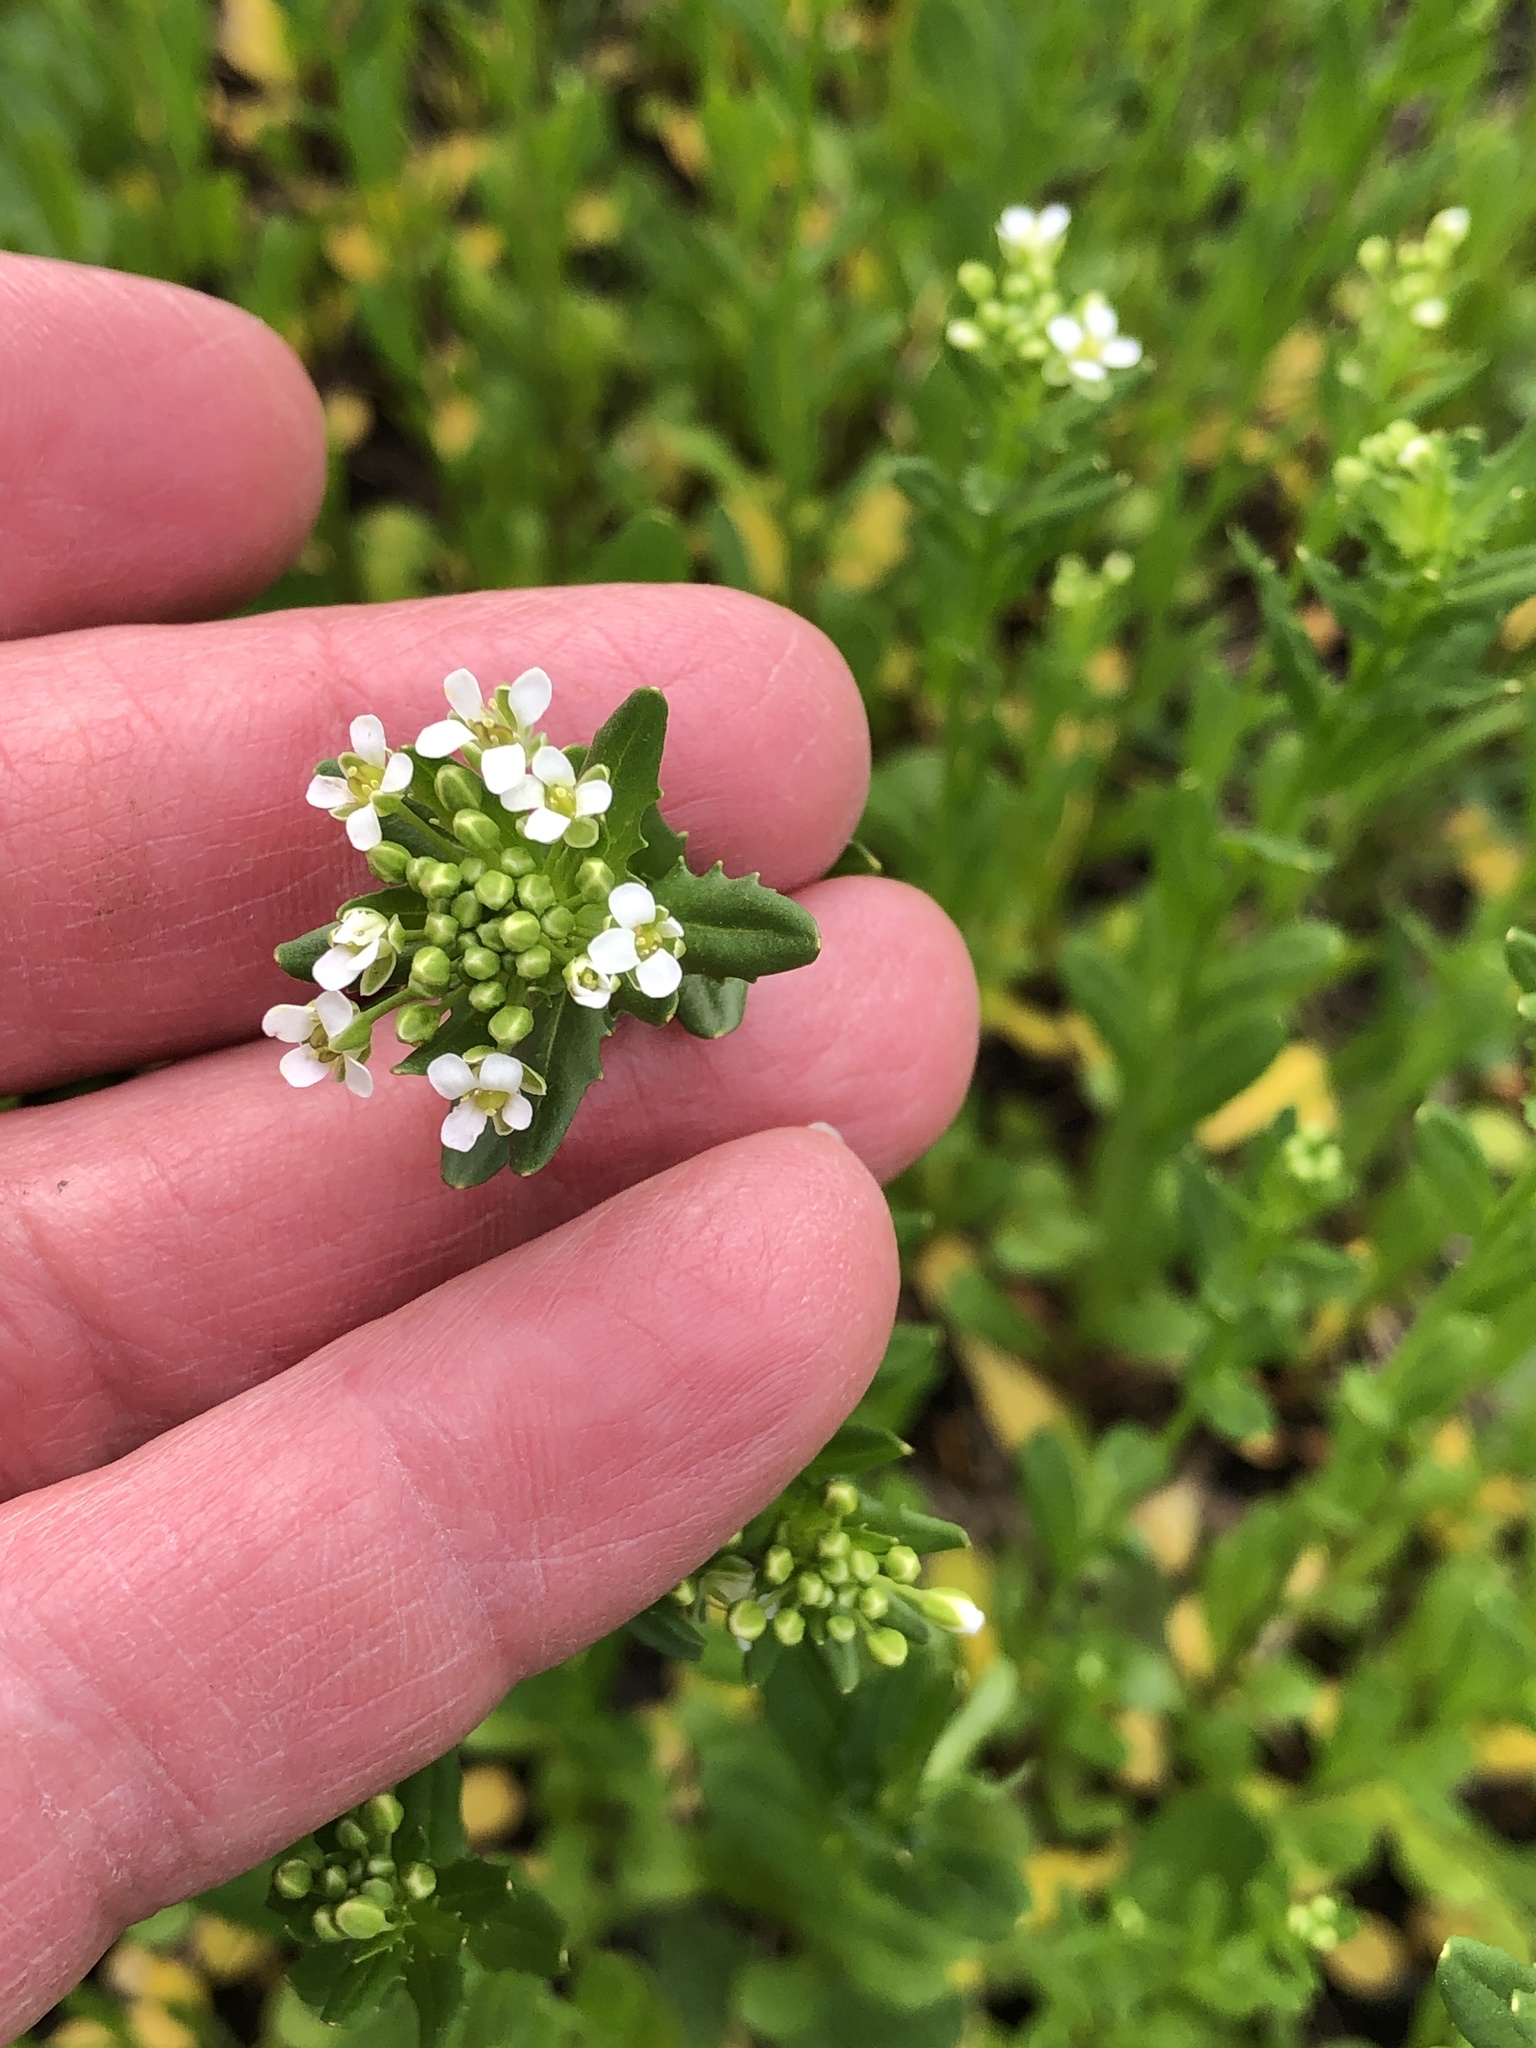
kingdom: Plantae
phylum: Tracheophyta
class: Magnoliopsida
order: Brassicales
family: Brassicaceae
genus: Thlaspi
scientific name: Thlaspi arvense
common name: Field pennycress
